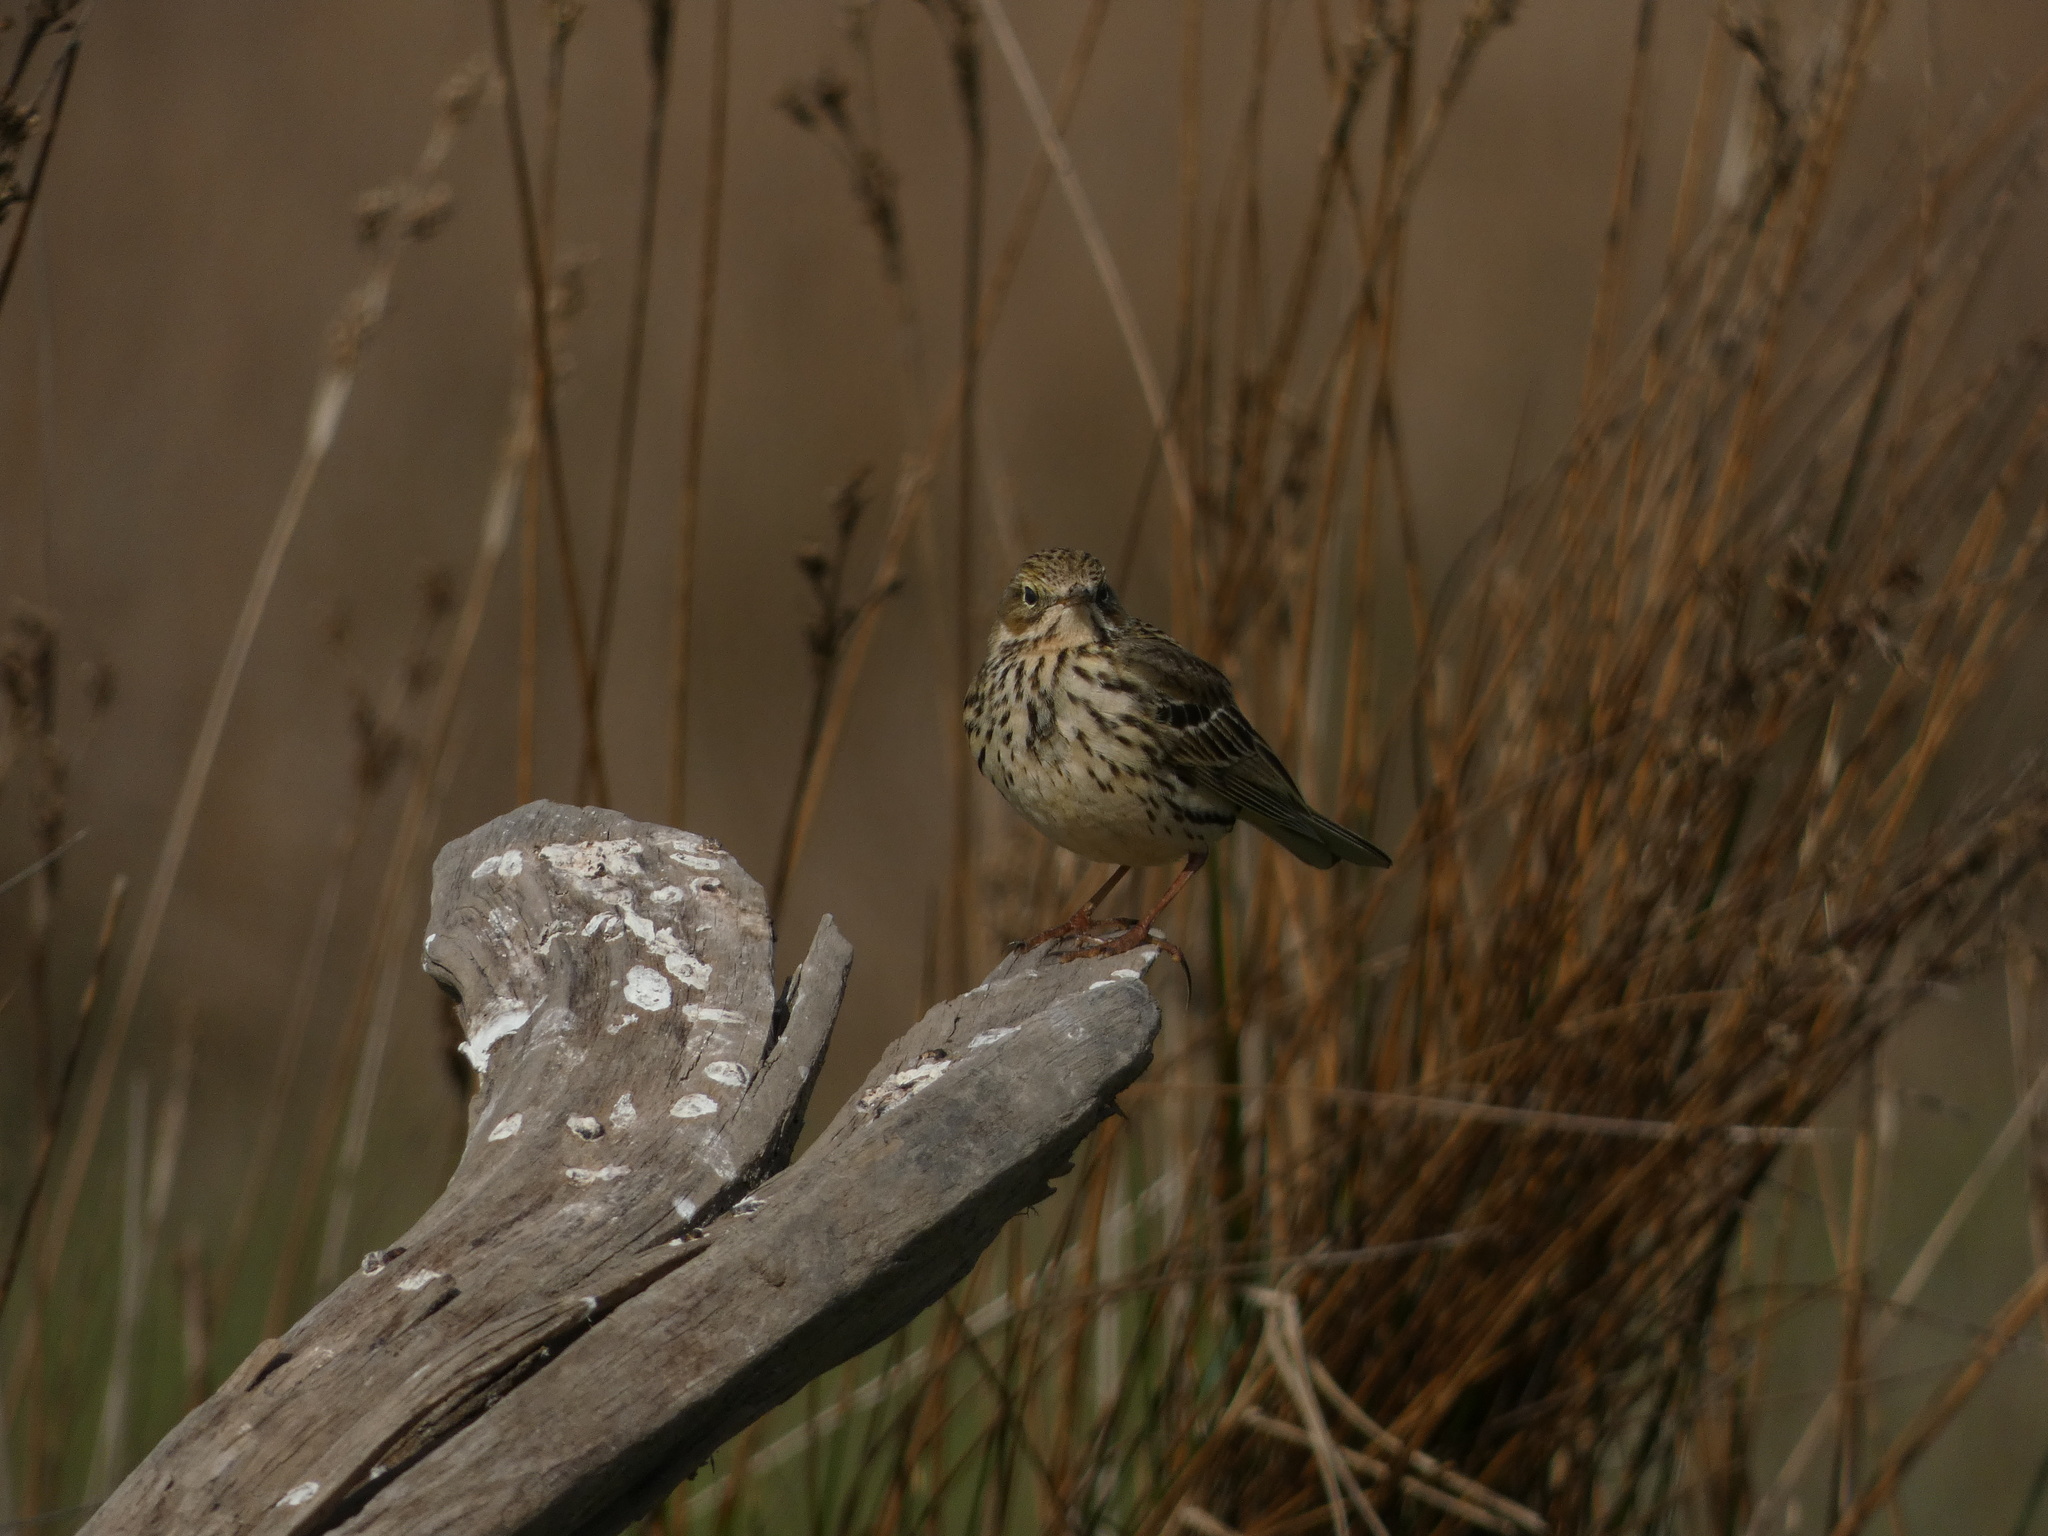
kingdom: Animalia
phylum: Chordata
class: Aves
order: Passeriformes
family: Motacillidae
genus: Anthus
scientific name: Anthus pratensis
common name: Meadow pipit
